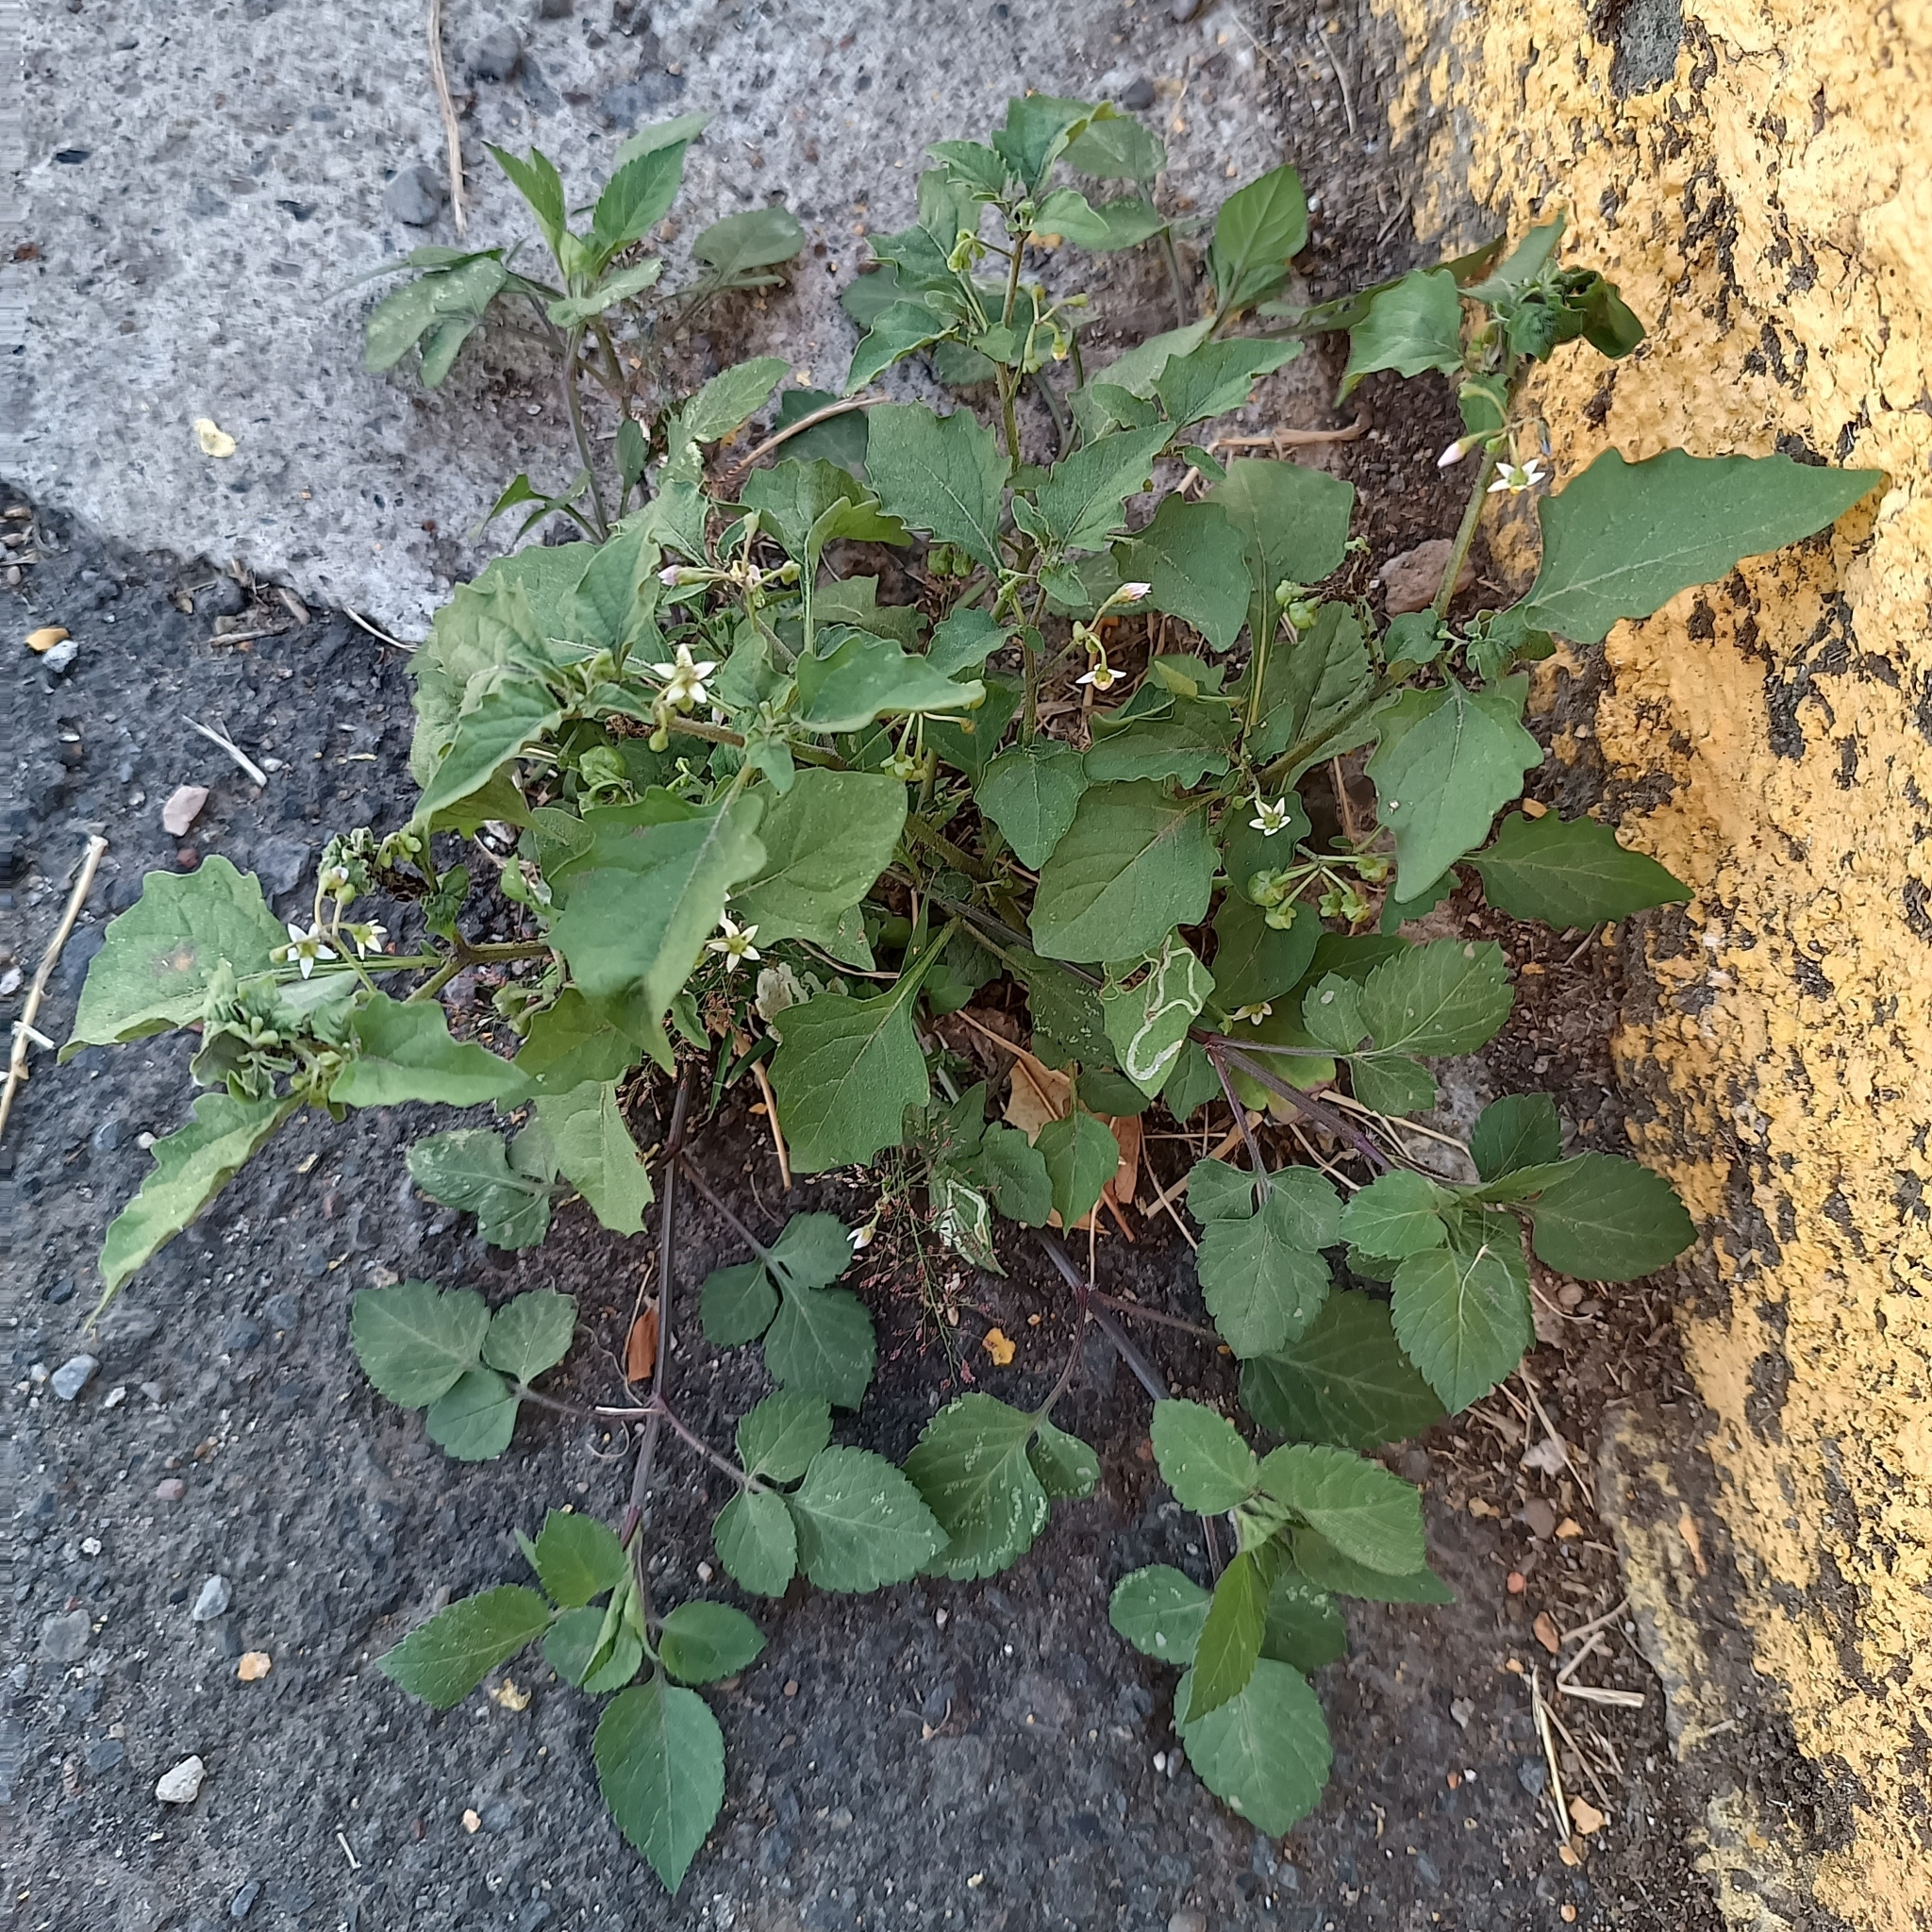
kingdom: Plantae
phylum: Tracheophyta
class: Magnoliopsida
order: Solanales
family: Solanaceae
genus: Solanum
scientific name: Solanum americanum
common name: American black nightshade
